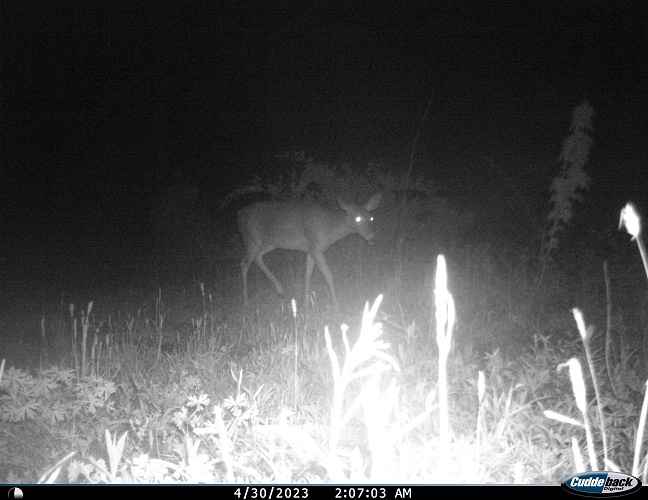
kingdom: Animalia
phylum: Chordata
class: Mammalia
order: Artiodactyla
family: Cervidae
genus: Odocoileus
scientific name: Odocoileus virginianus
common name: White-tailed deer
